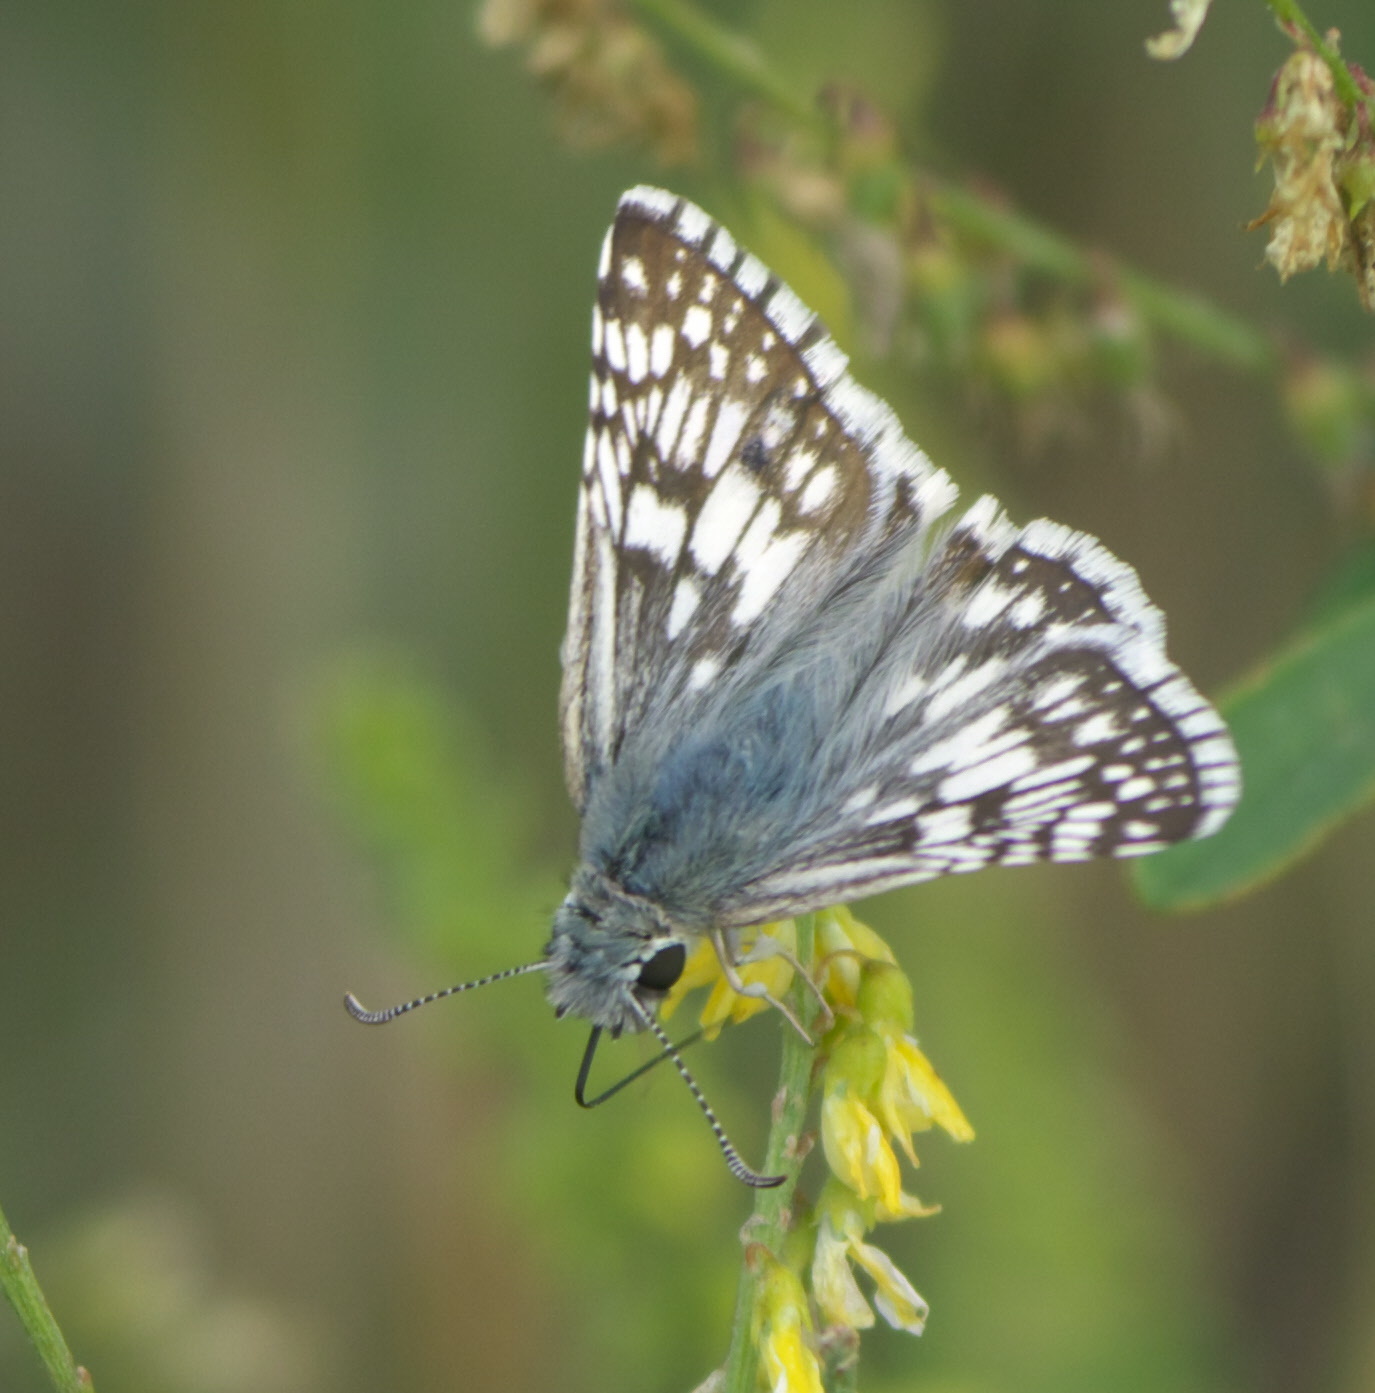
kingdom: Animalia
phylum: Arthropoda
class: Insecta
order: Lepidoptera
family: Hesperiidae
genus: Burnsius
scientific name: Burnsius communis
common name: Common checkered-skipper
